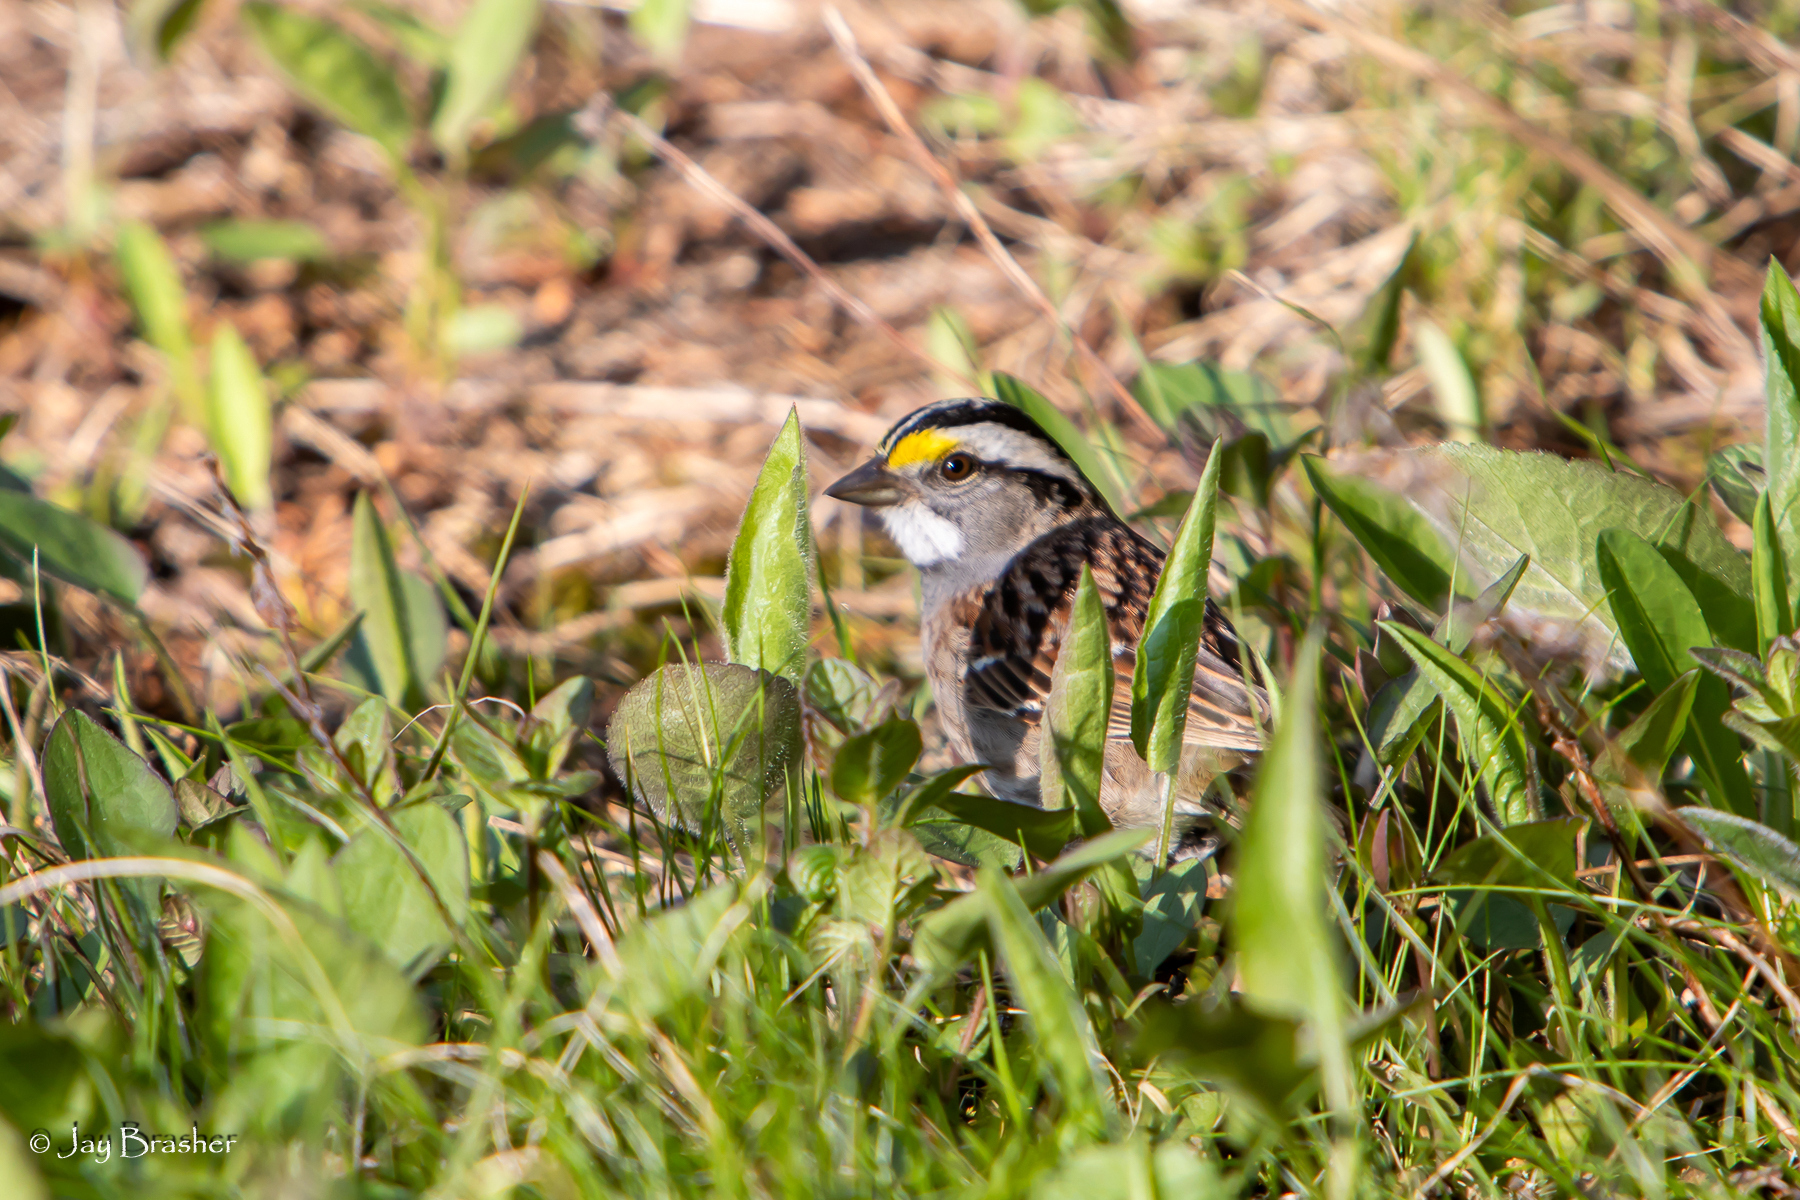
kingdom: Animalia
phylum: Chordata
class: Aves
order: Passeriformes
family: Passerellidae
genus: Zonotrichia
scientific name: Zonotrichia albicollis
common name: White-throated sparrow
